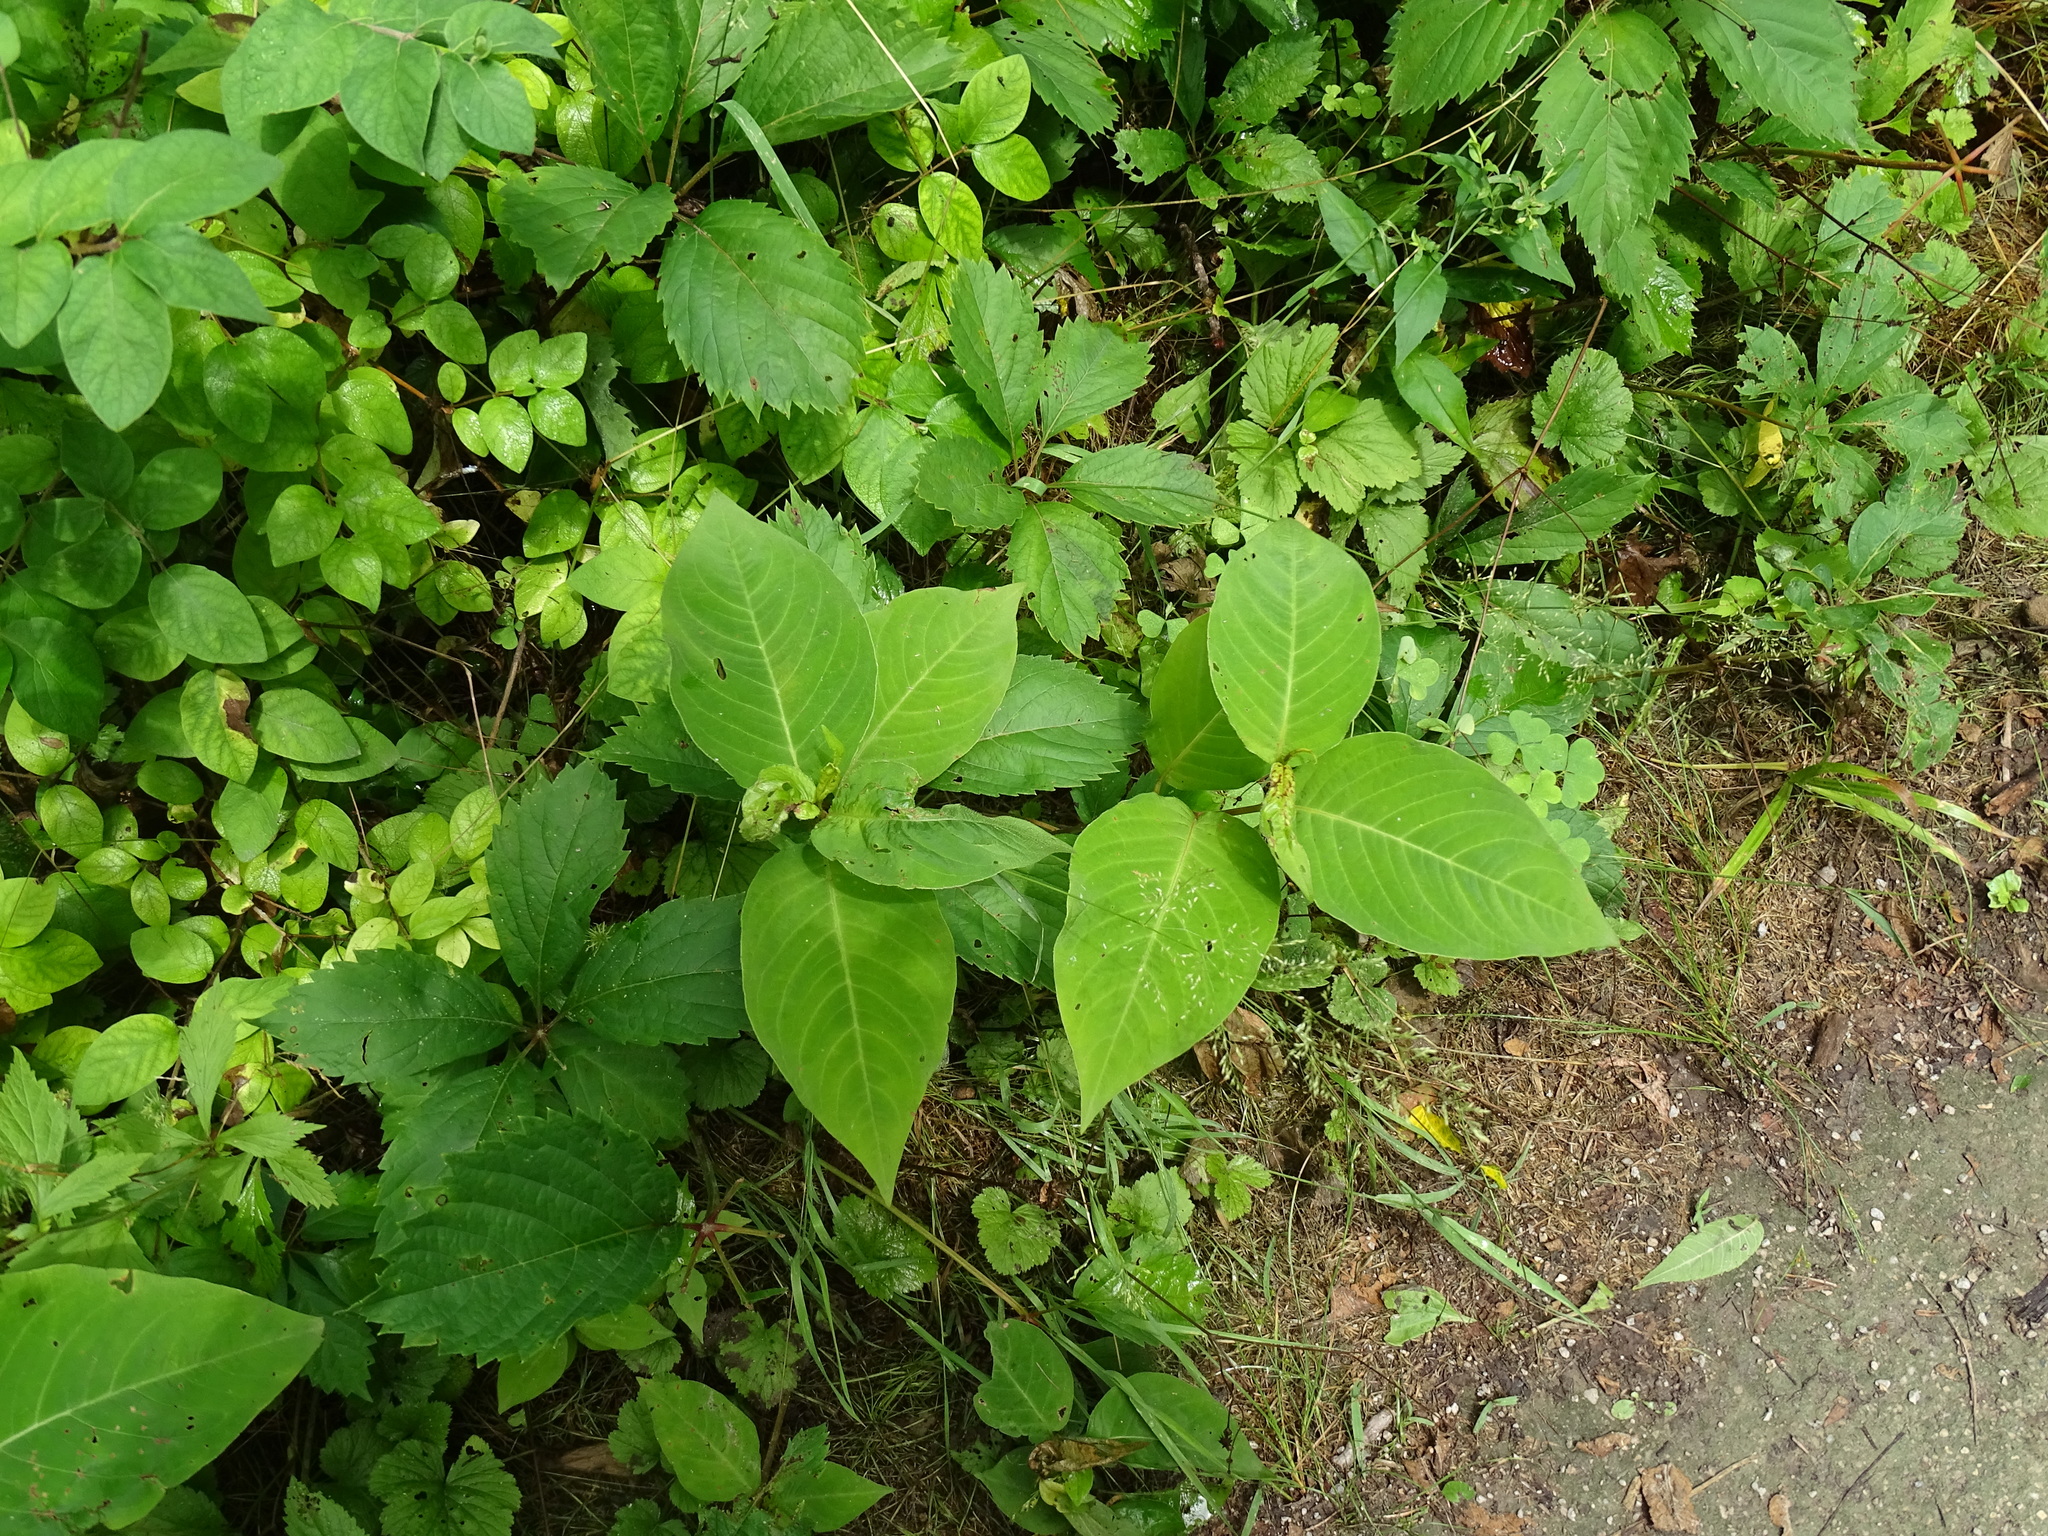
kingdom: Plantae
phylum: Tracheophyta
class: Magnoliopsida
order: Caryophyllales
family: Polygonaceae
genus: Persicaria
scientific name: Persicaria virginiana
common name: Jumpseed
